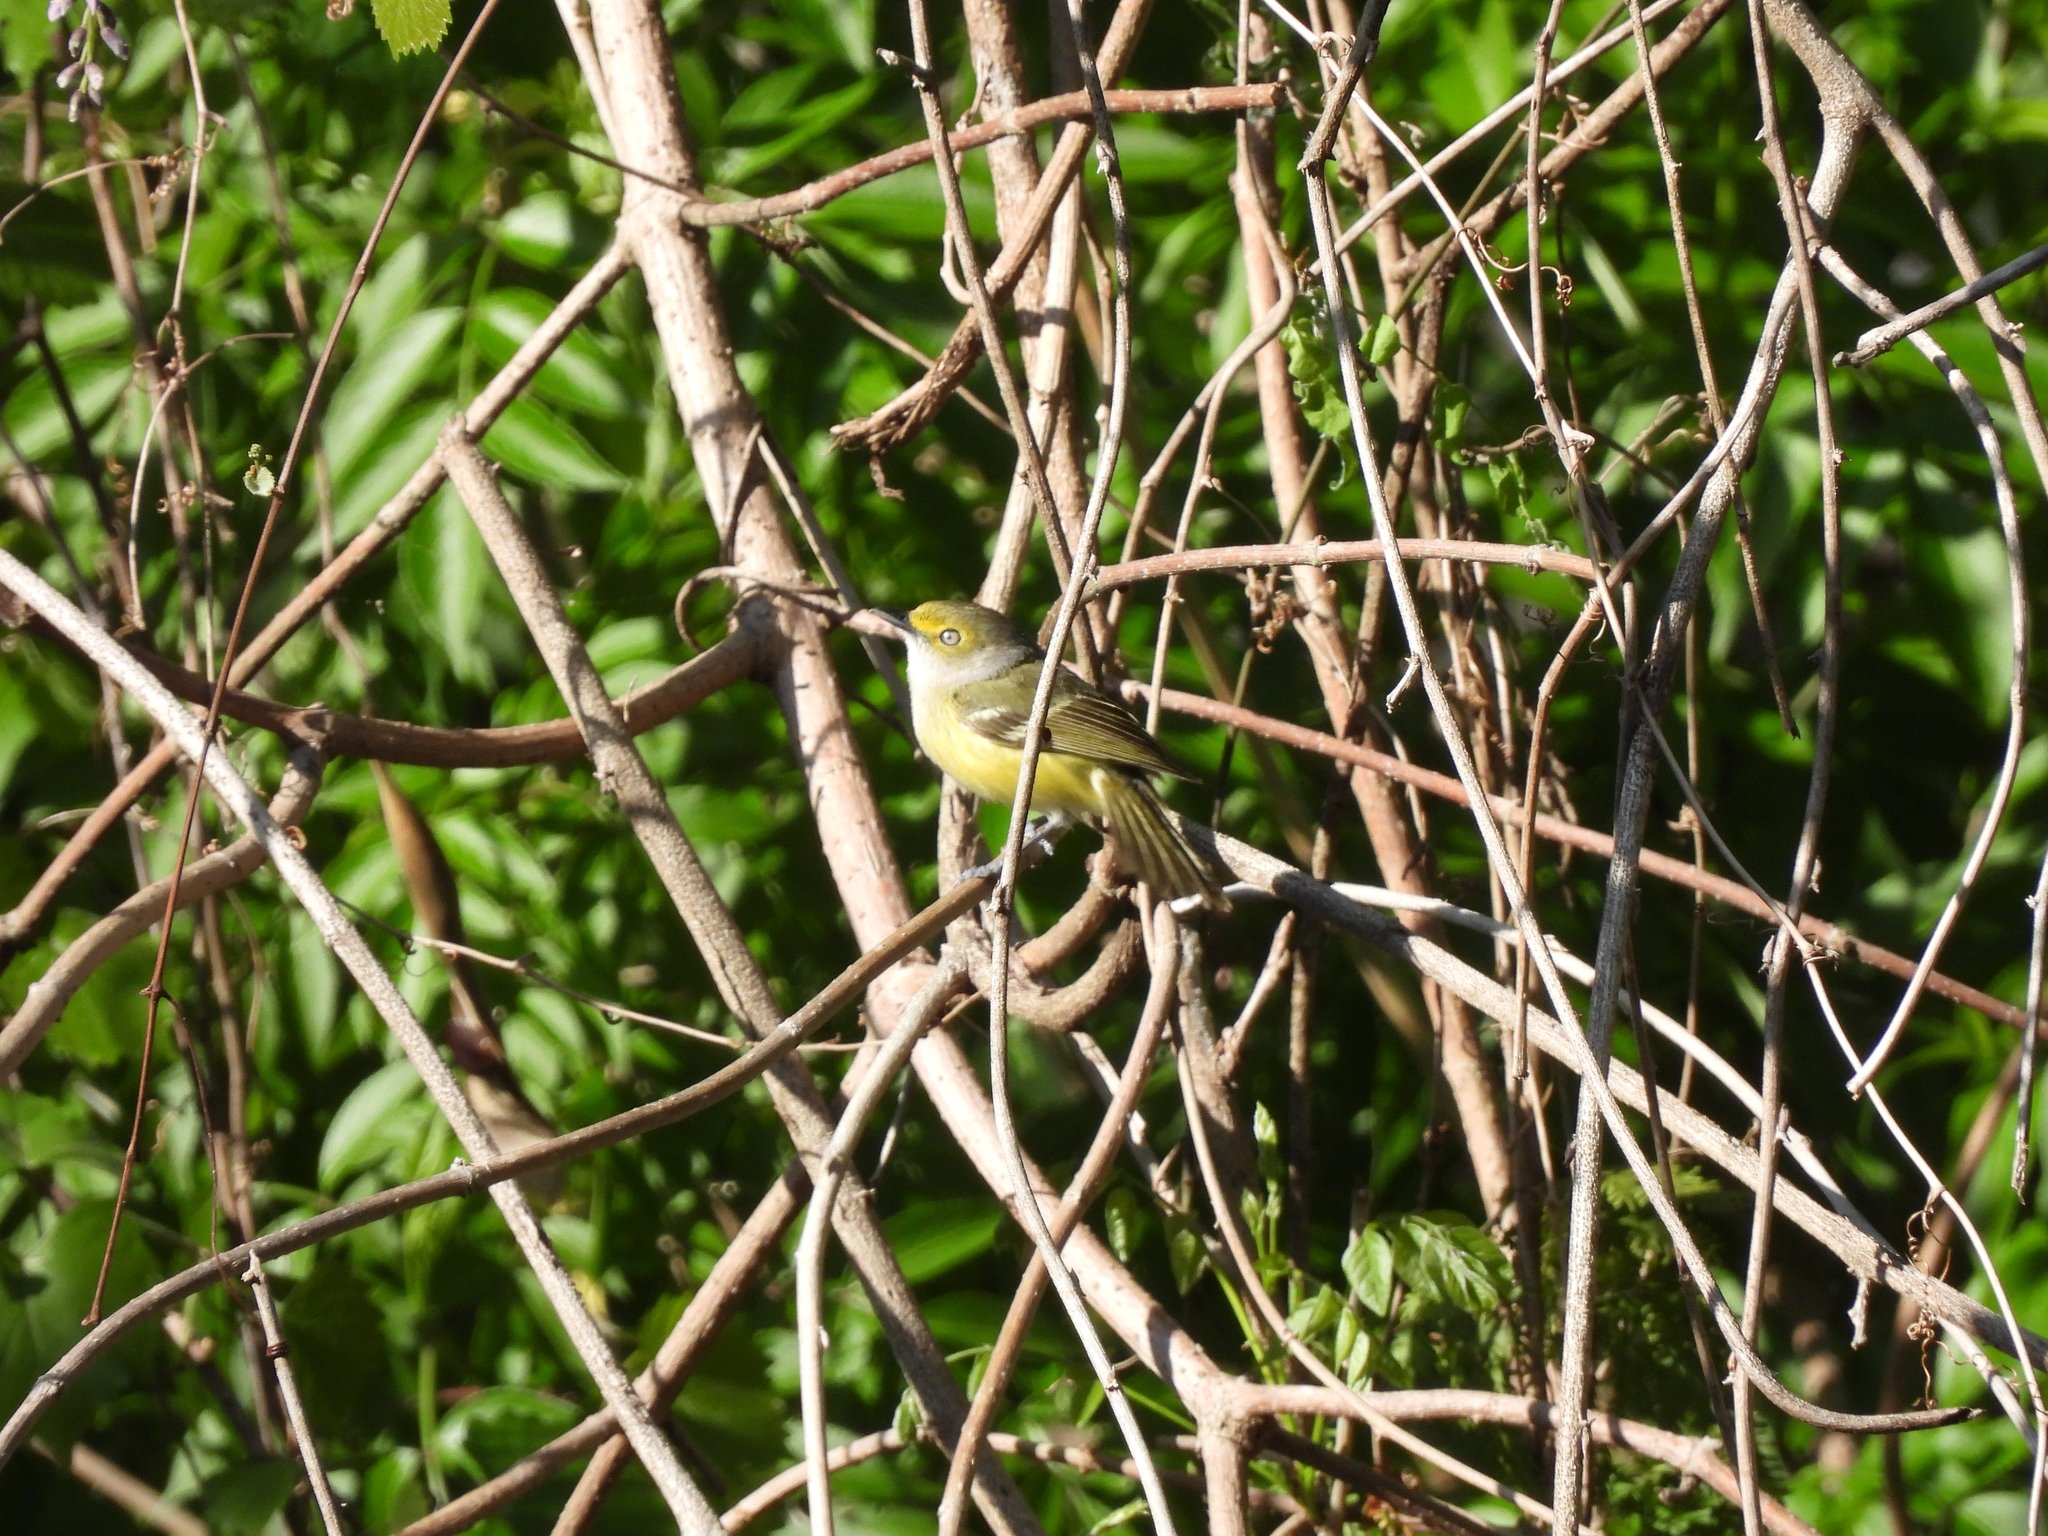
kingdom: Animalia
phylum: Chordata
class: Aves
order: Passeriformes
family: Vireonidae
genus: Vireo
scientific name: Vireo griseus
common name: White-eyed vireo
